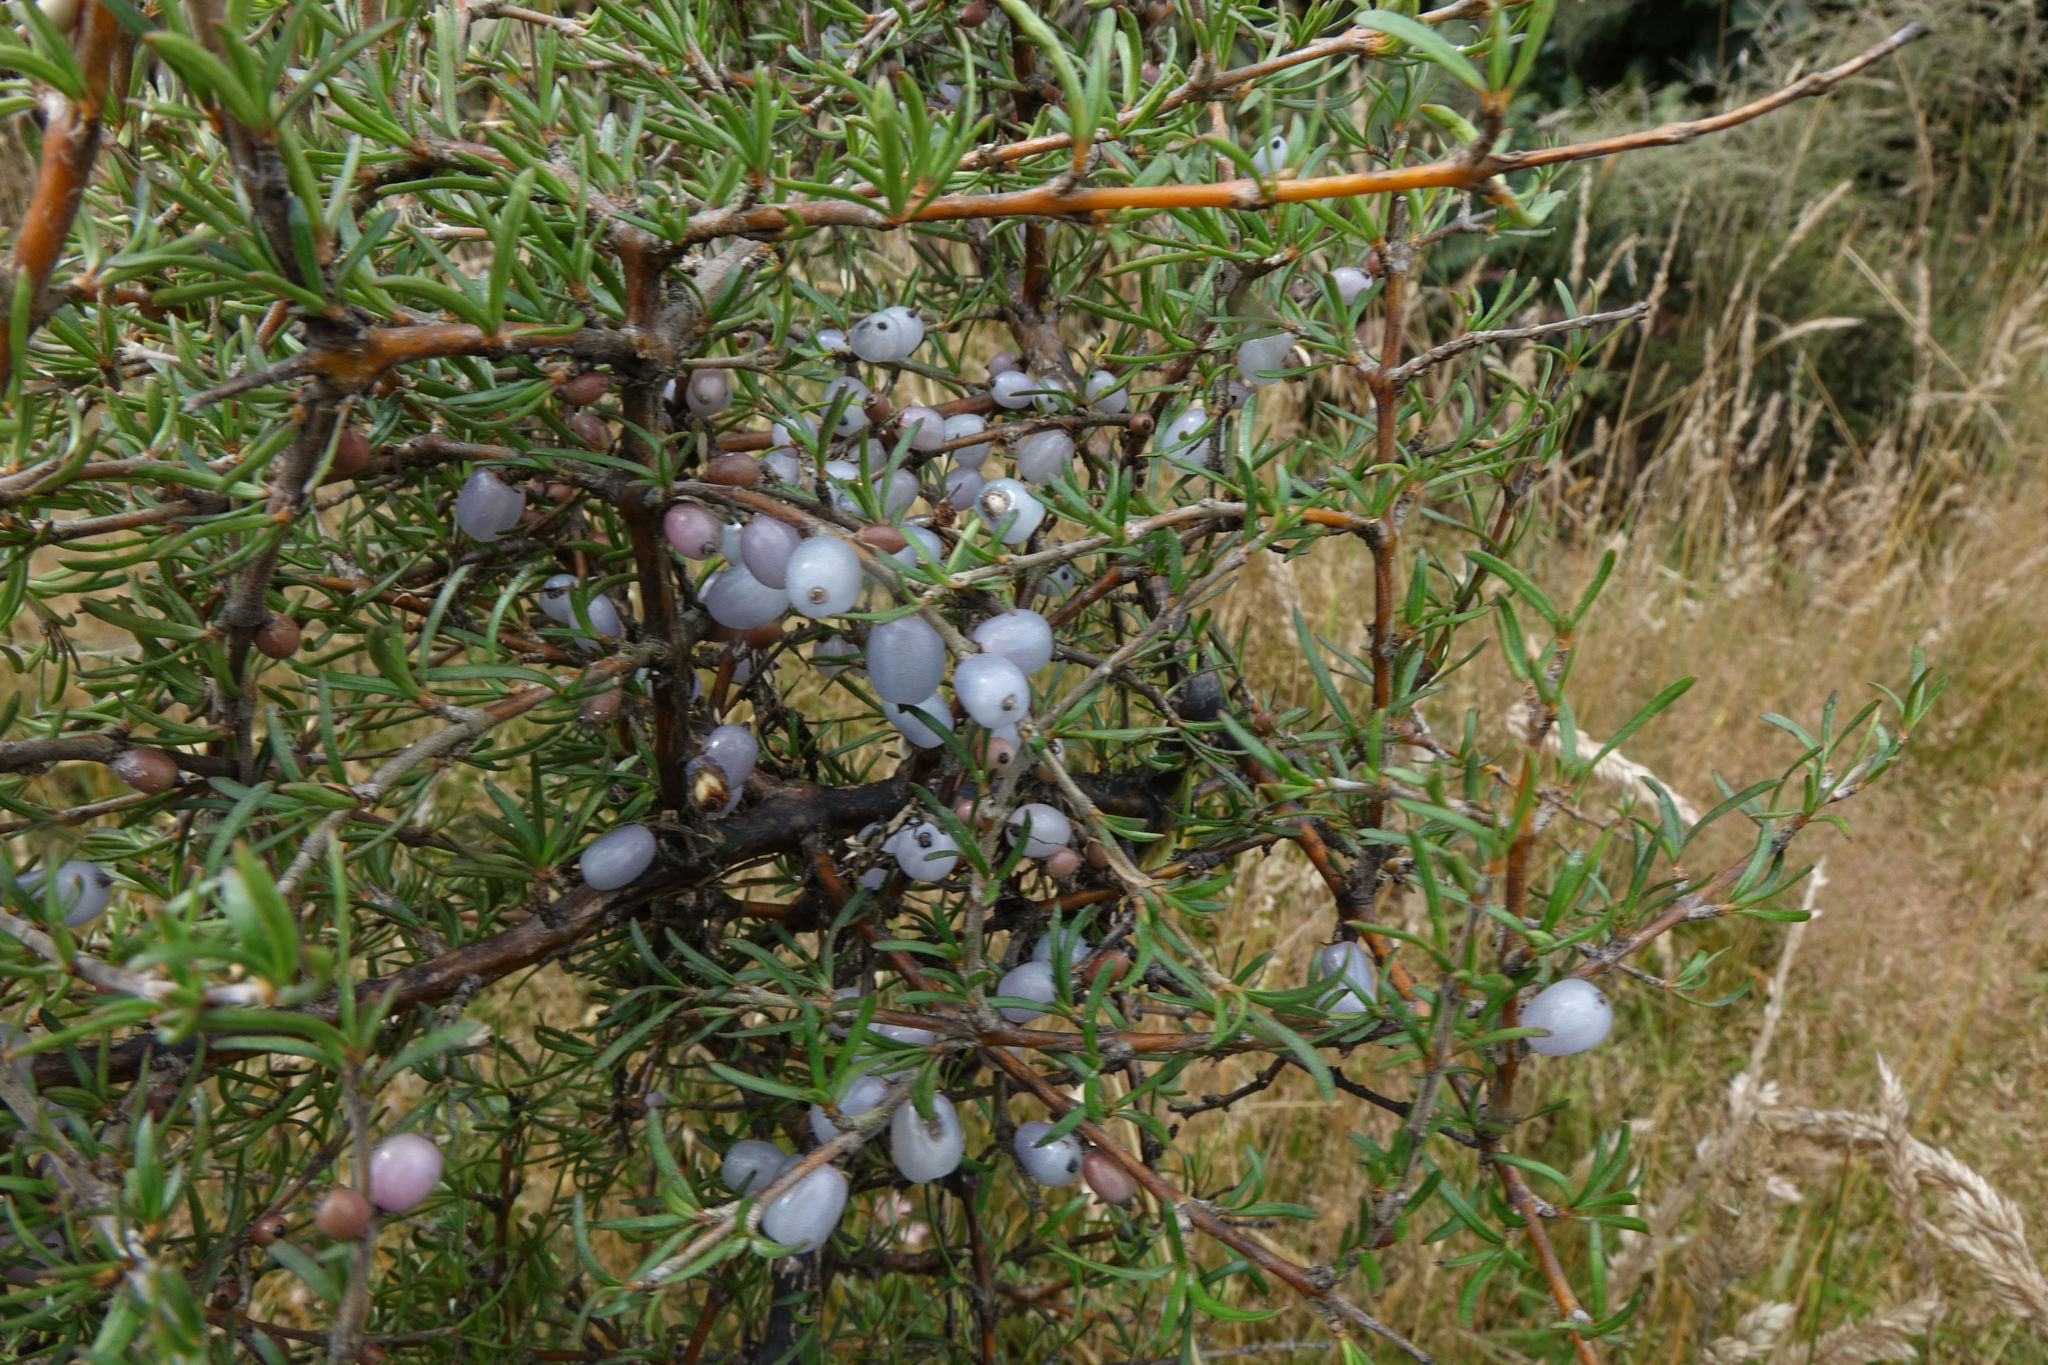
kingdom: Plantae
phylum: Tracheophyta
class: Magnoliopsida
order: Gentianales
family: Rubiaceae
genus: Coprosma
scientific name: Coprosma rugosa
